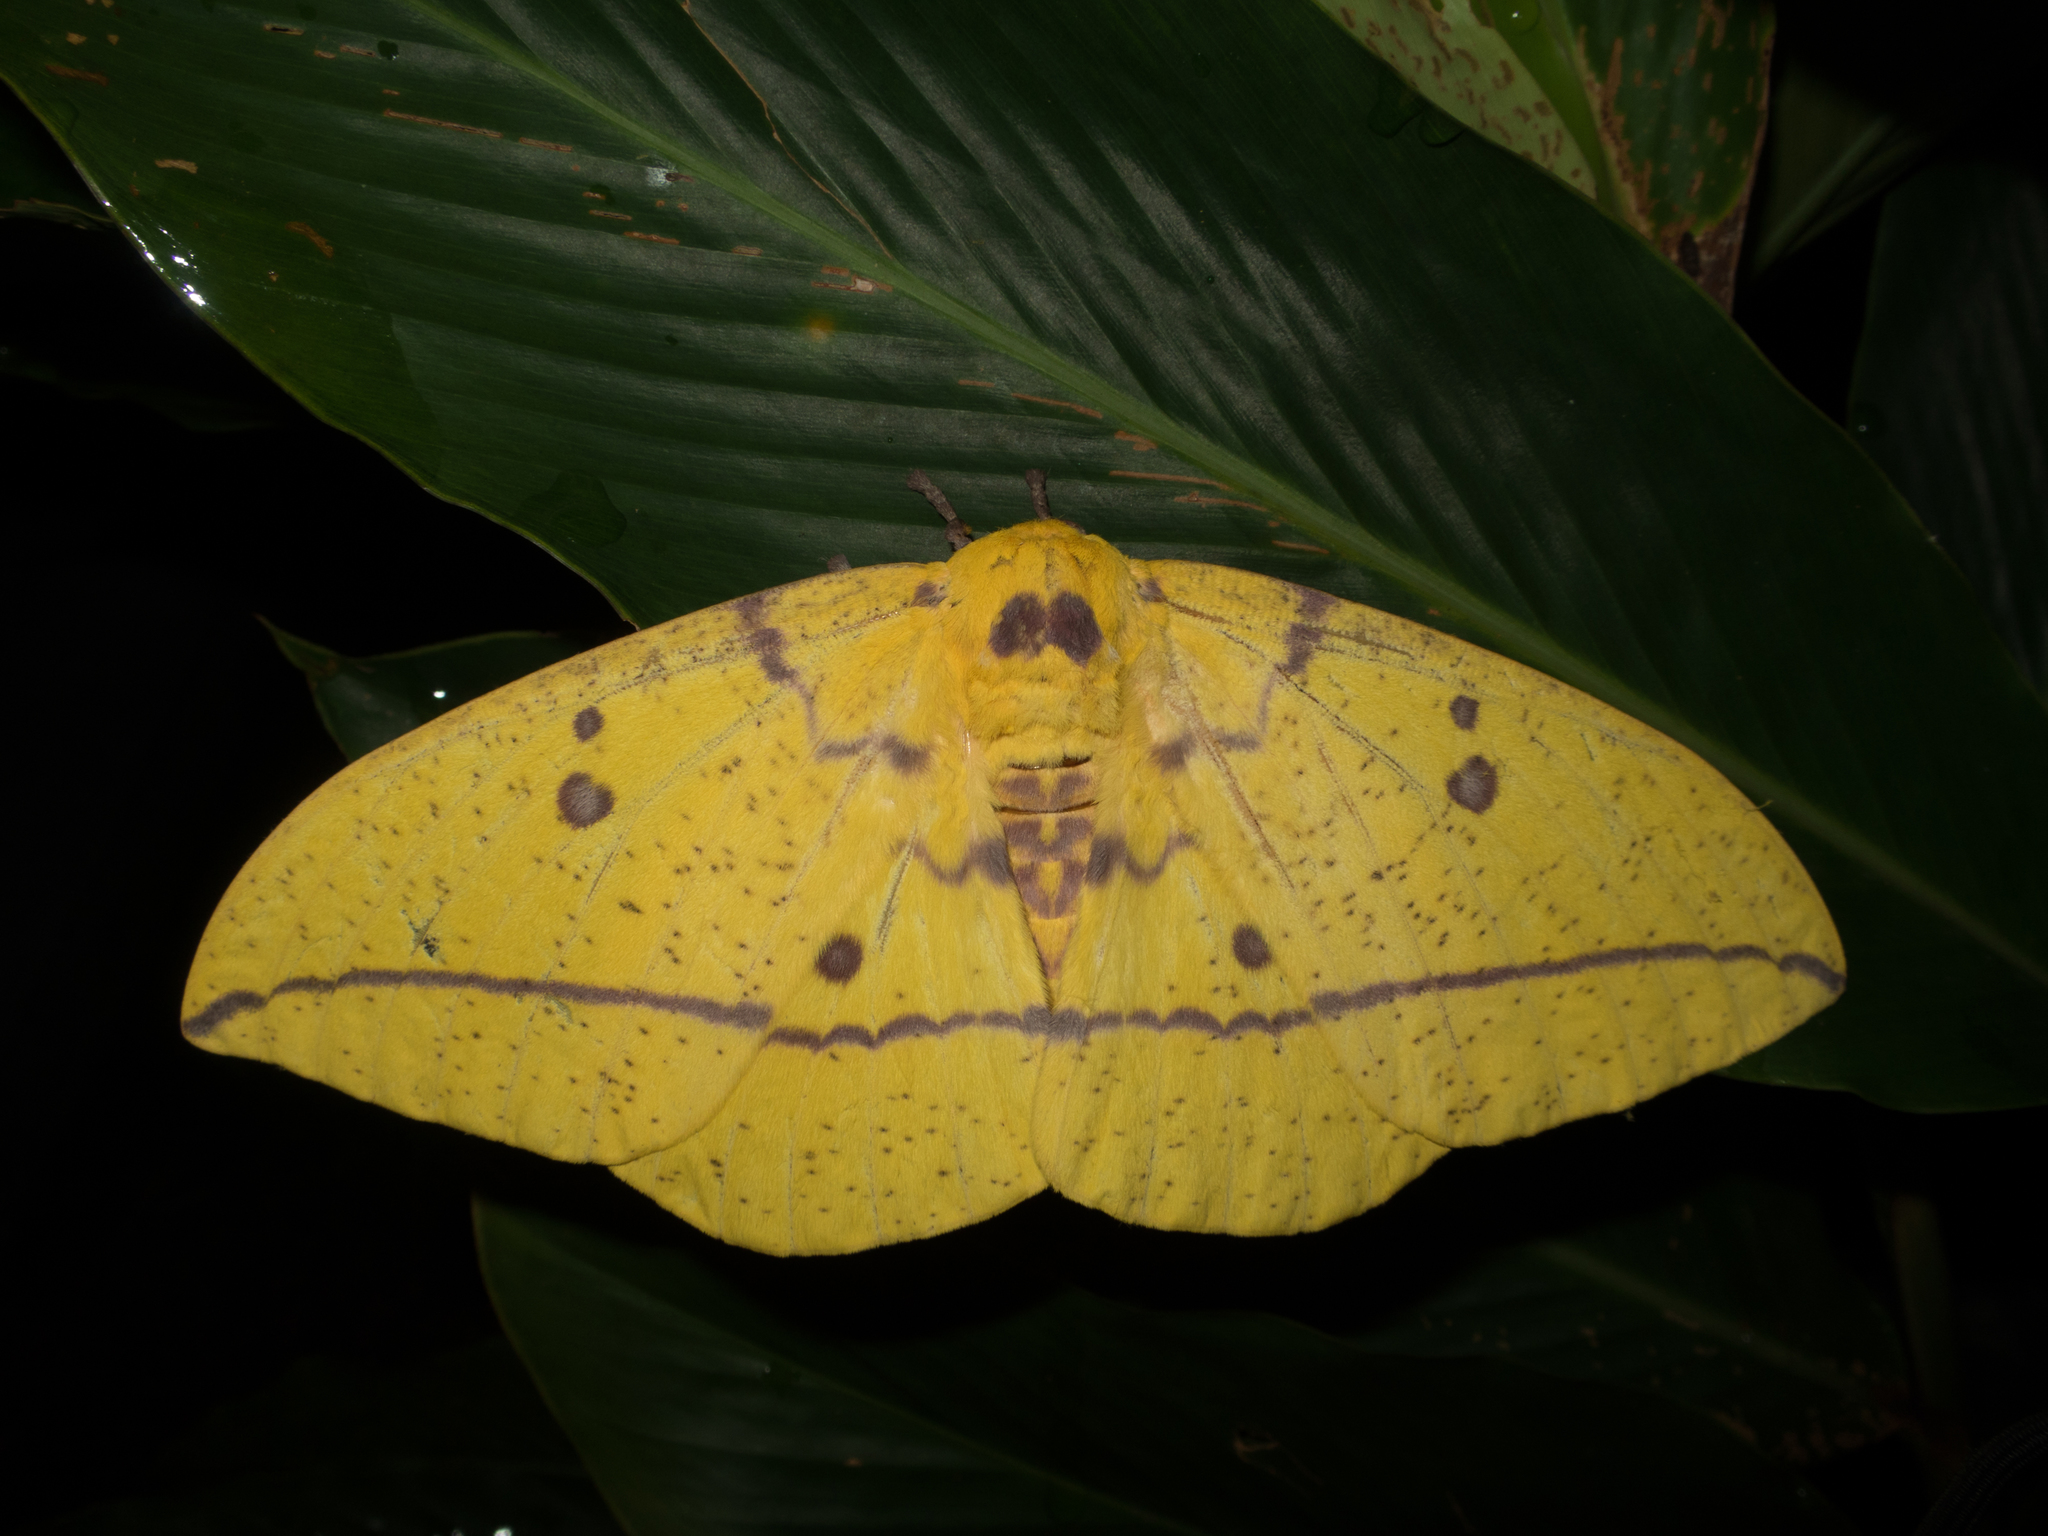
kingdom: Animalia
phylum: Arthropoda
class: Insecta
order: Lepidoptera
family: Saturniidae
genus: Eacles
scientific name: Eacles imperialis
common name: Imperial moth
